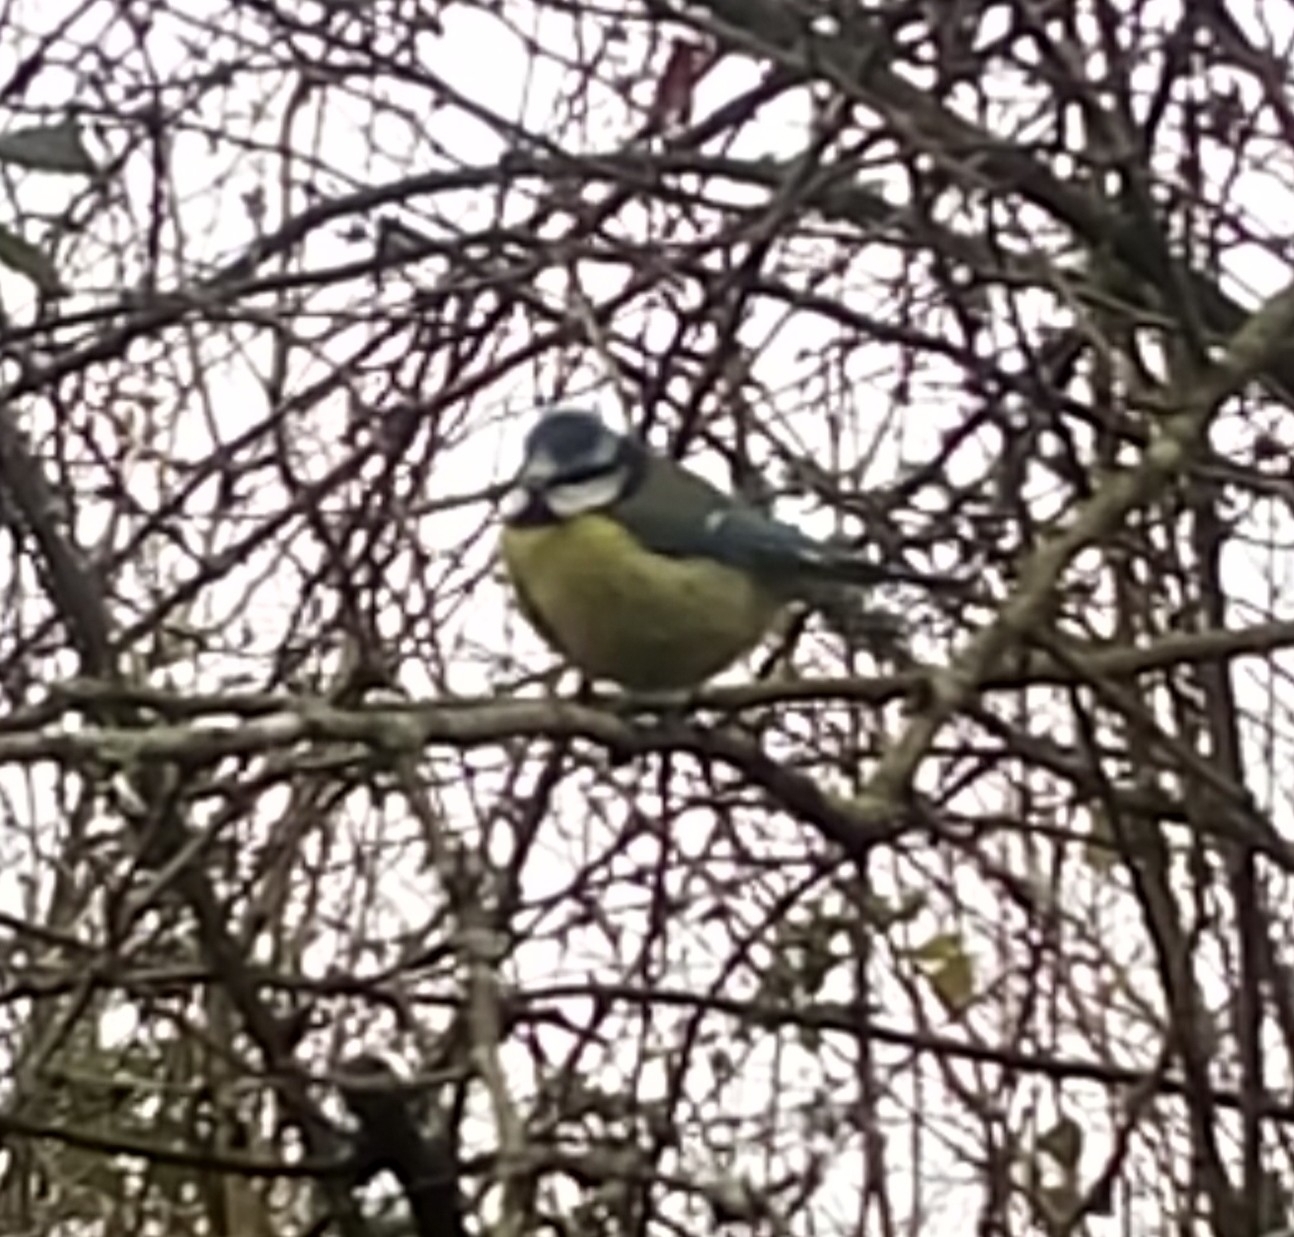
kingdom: Animalia
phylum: Chordata
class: Aves
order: Passeriformes
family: Paridae
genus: Cyanistes
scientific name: Cyanistes caeruleus
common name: Eurasian blue tit
